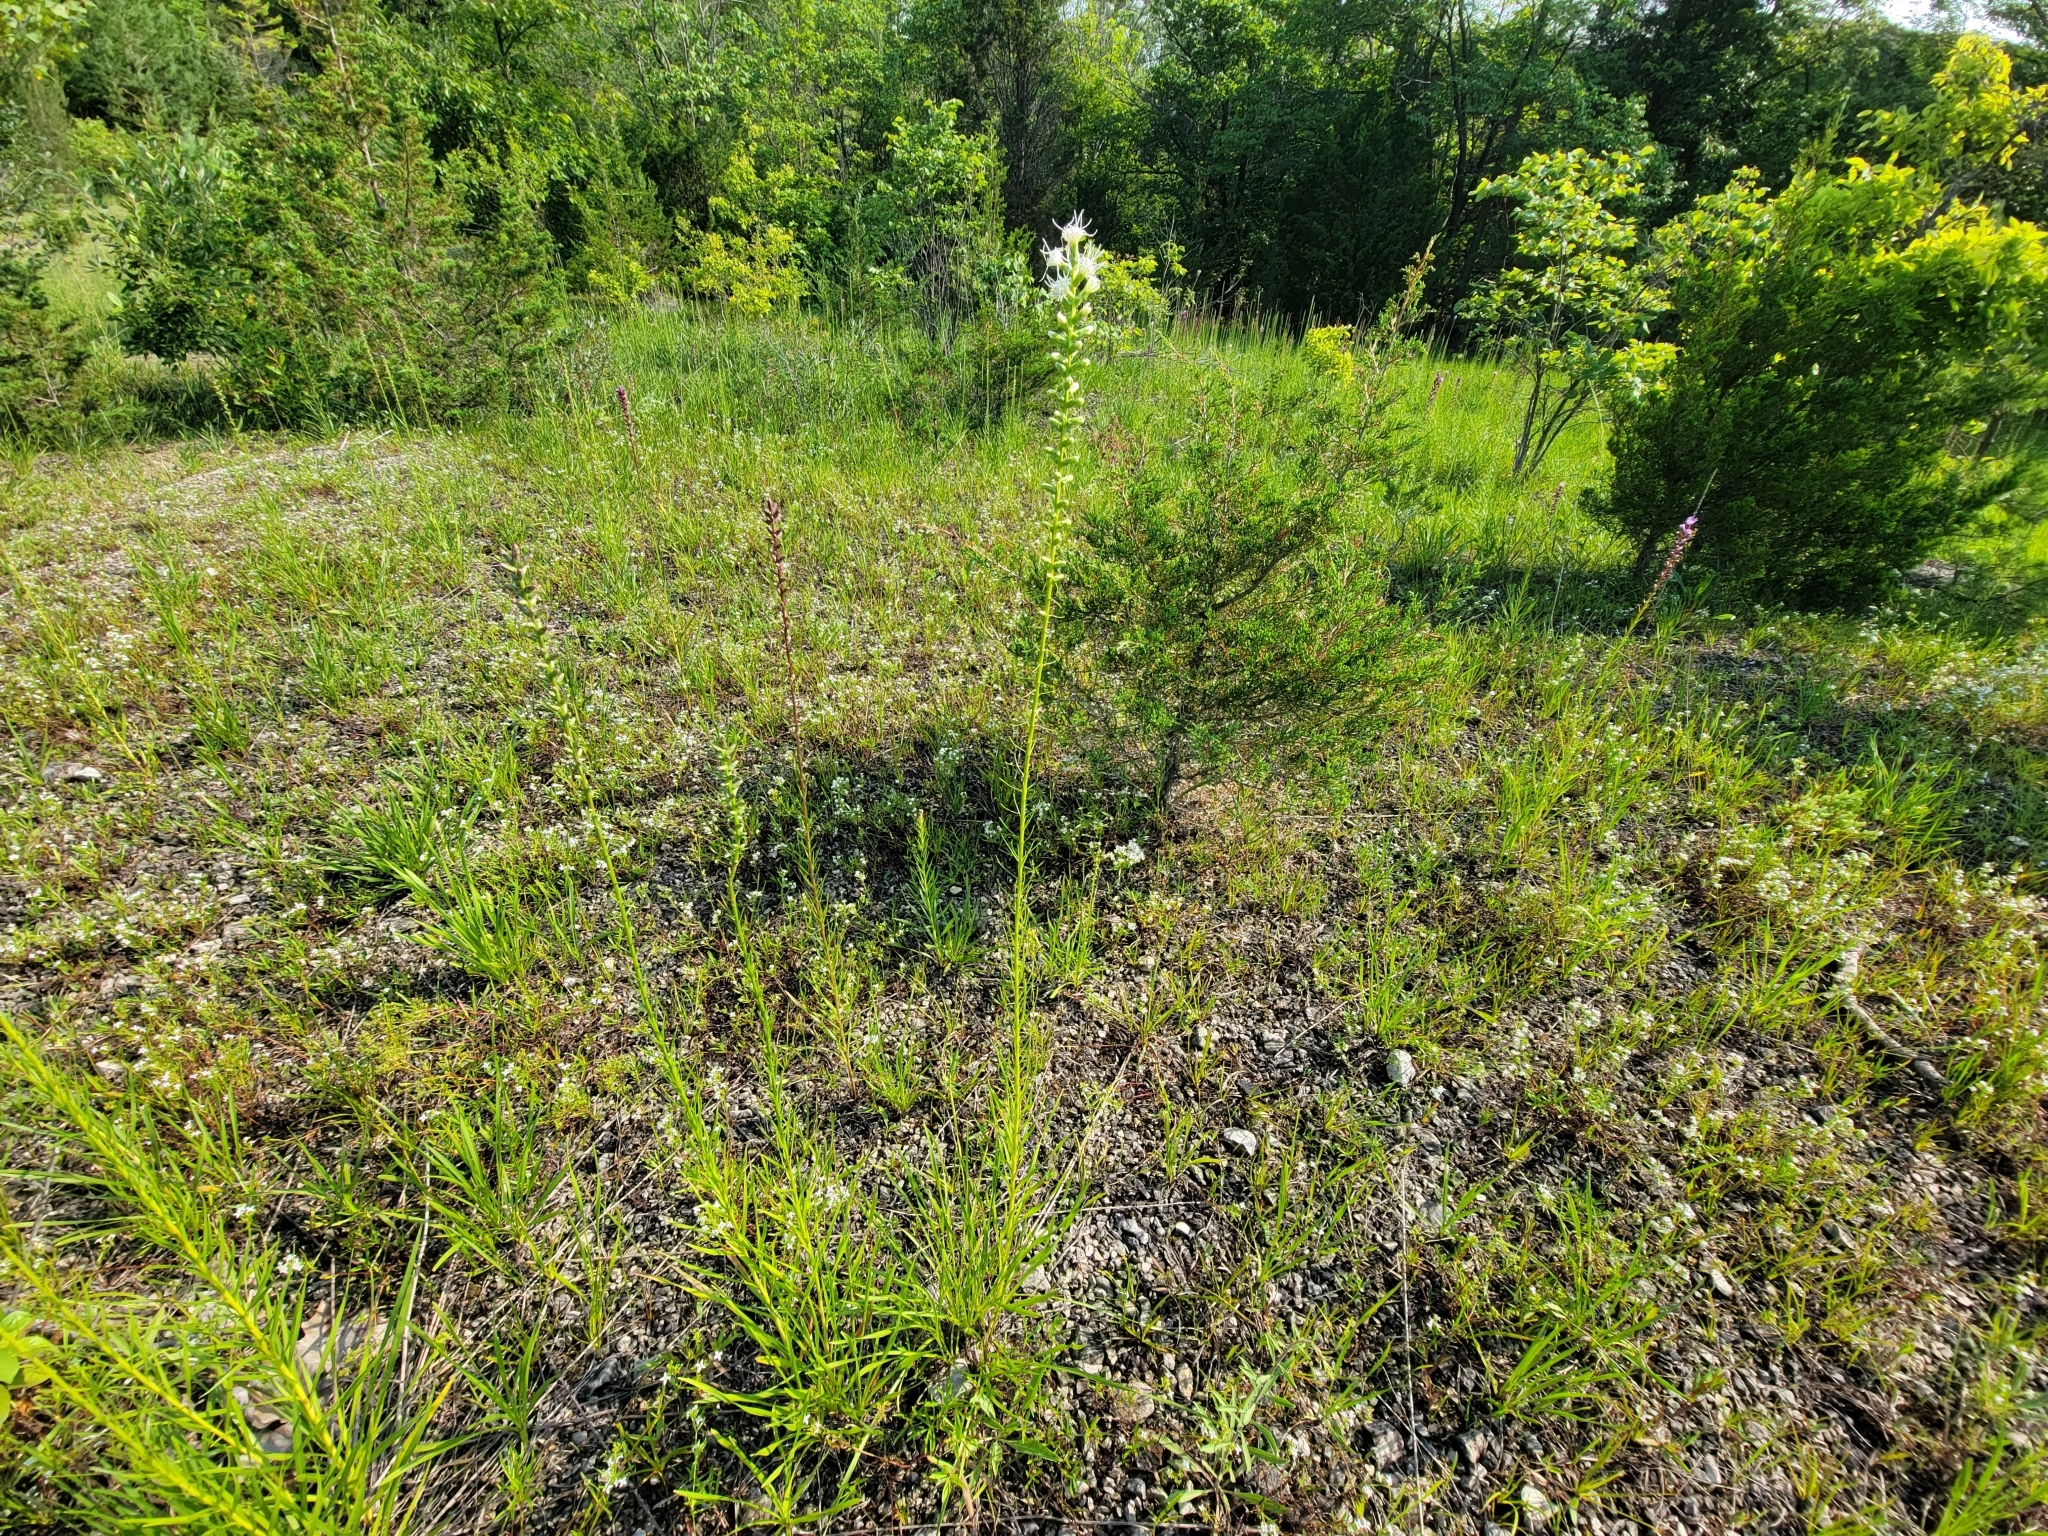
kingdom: Plantae
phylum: Tracheophyta
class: Magnoliopsida
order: Asterales
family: Asteraceae
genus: Liatris
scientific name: Liatris spicata
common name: Florist gayfeather
